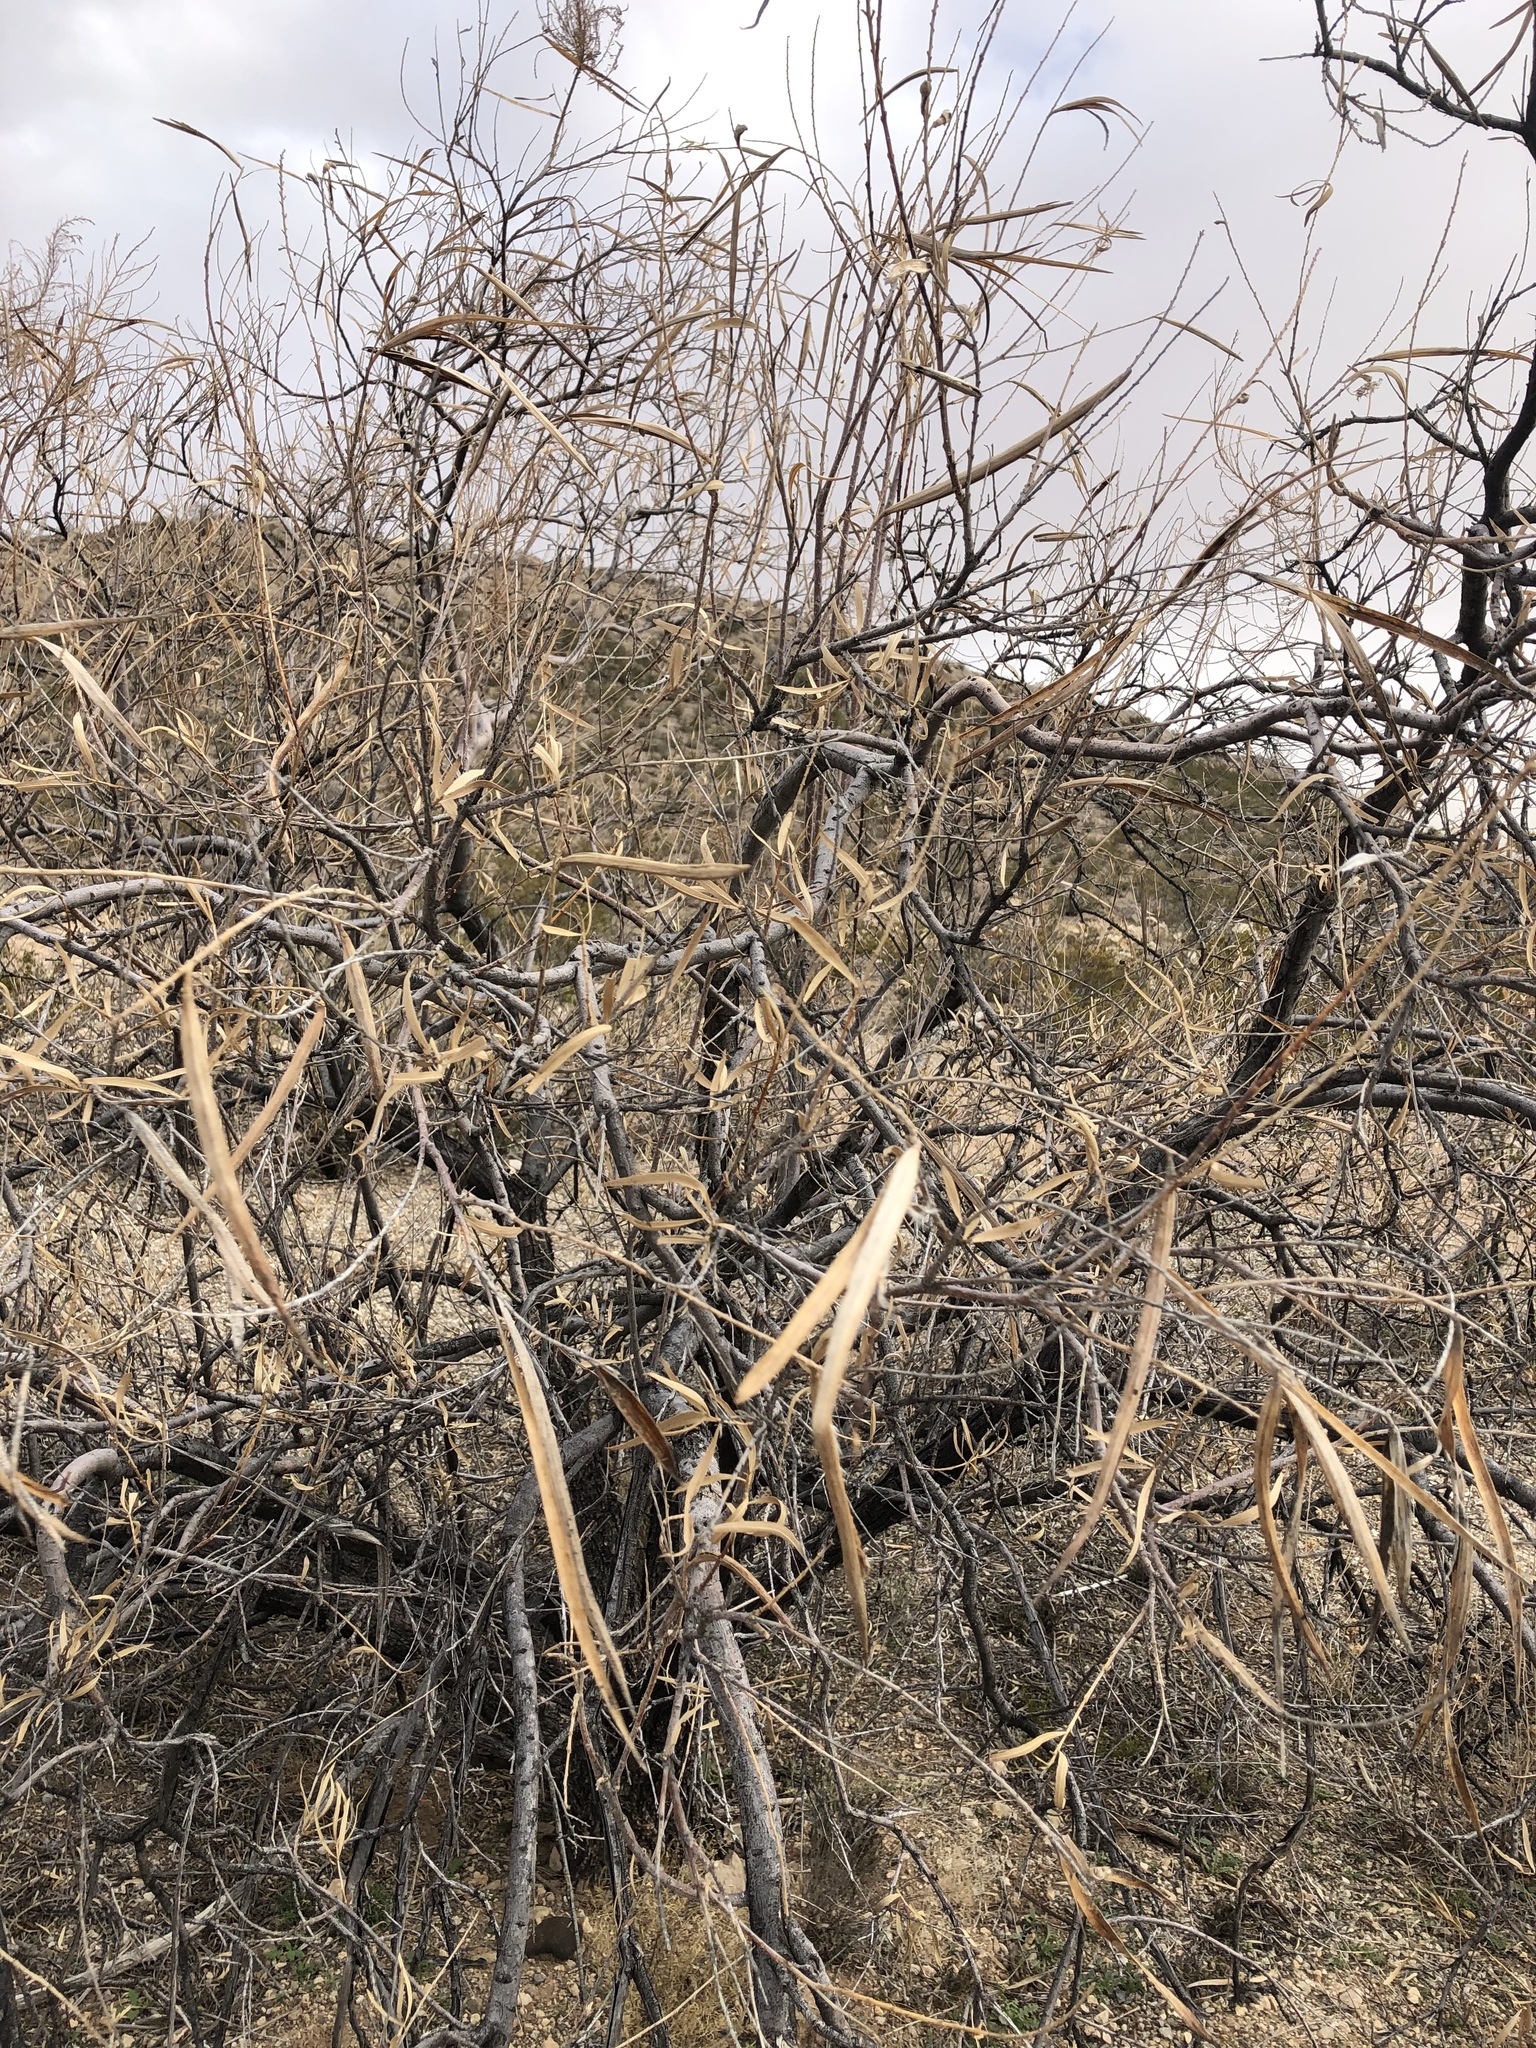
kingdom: Plantae
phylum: Tracheophyta
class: Magnoliopsida
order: Lamiales
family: Bignoniaceae
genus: Chilopsis
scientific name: Chilopsis linearis
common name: Desert-willow
